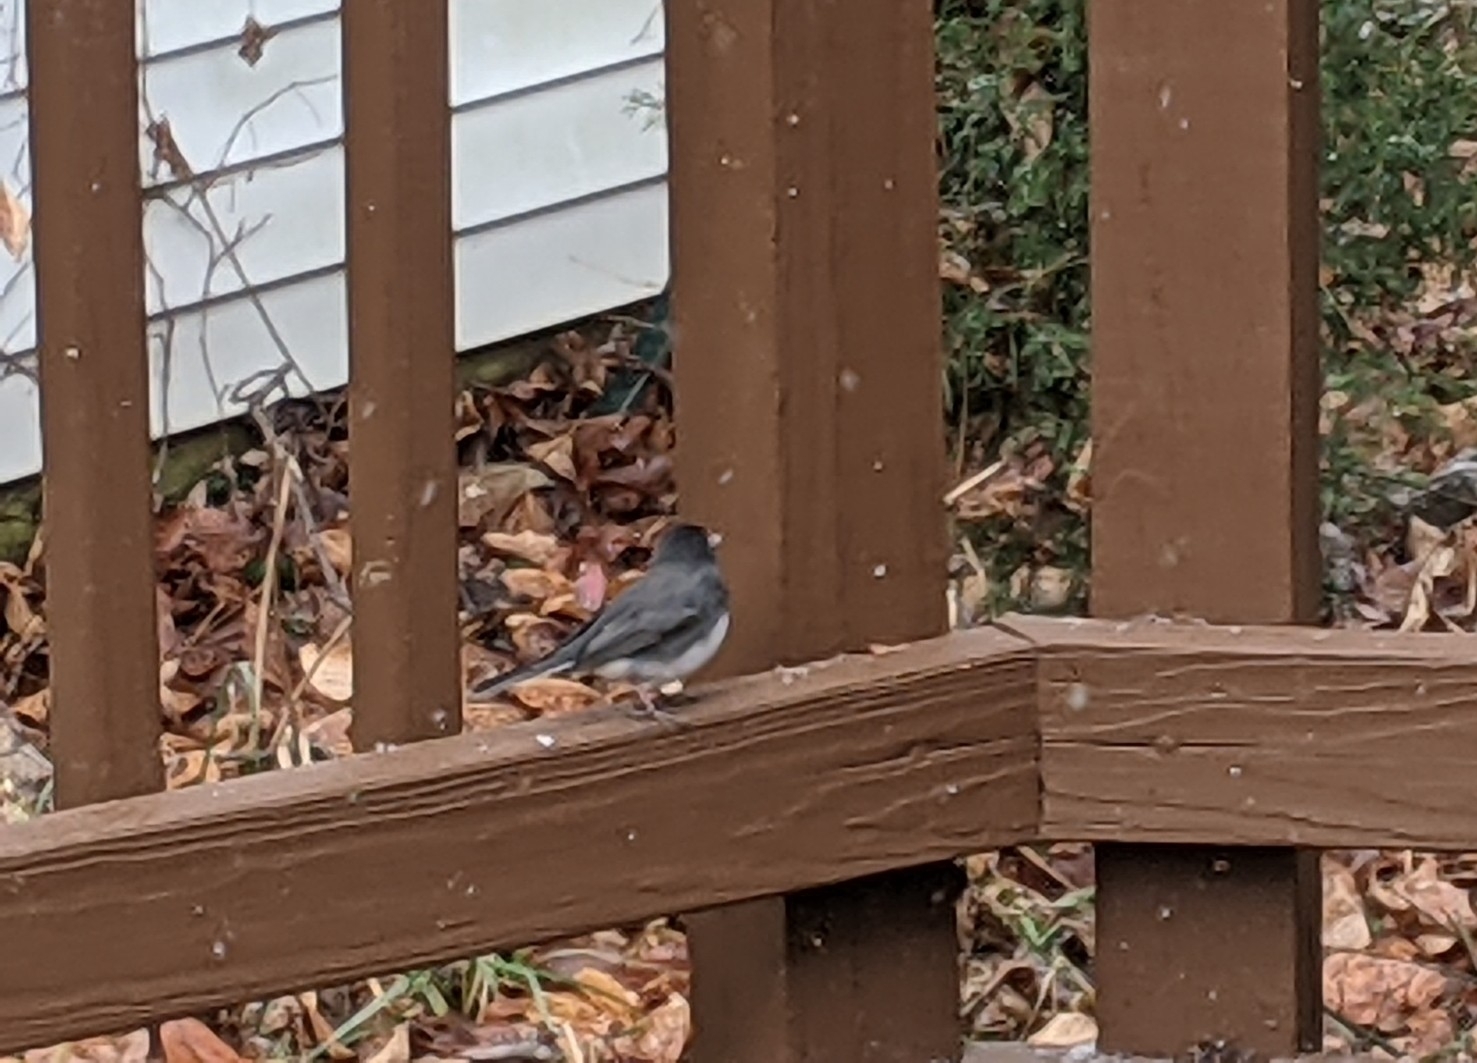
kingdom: Animalia
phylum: Chordata
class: Aves
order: Passeriformes
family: Passerellidae
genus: Junco
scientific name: Junco hyemalis
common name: Dark-eyed junco
